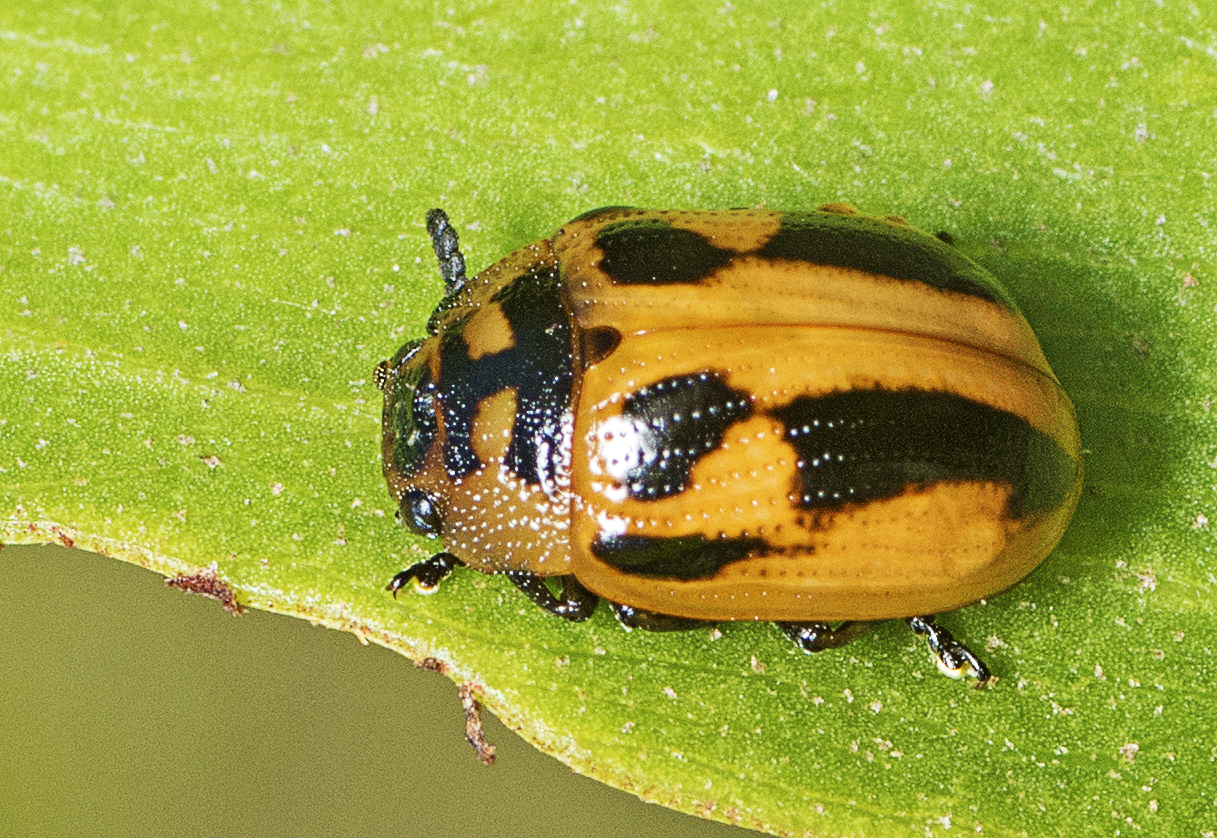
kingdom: Animalia
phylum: Arthropoda
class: Insecta
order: Coleoptera
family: Chrysomelidae
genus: Calomela
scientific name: Calomela
